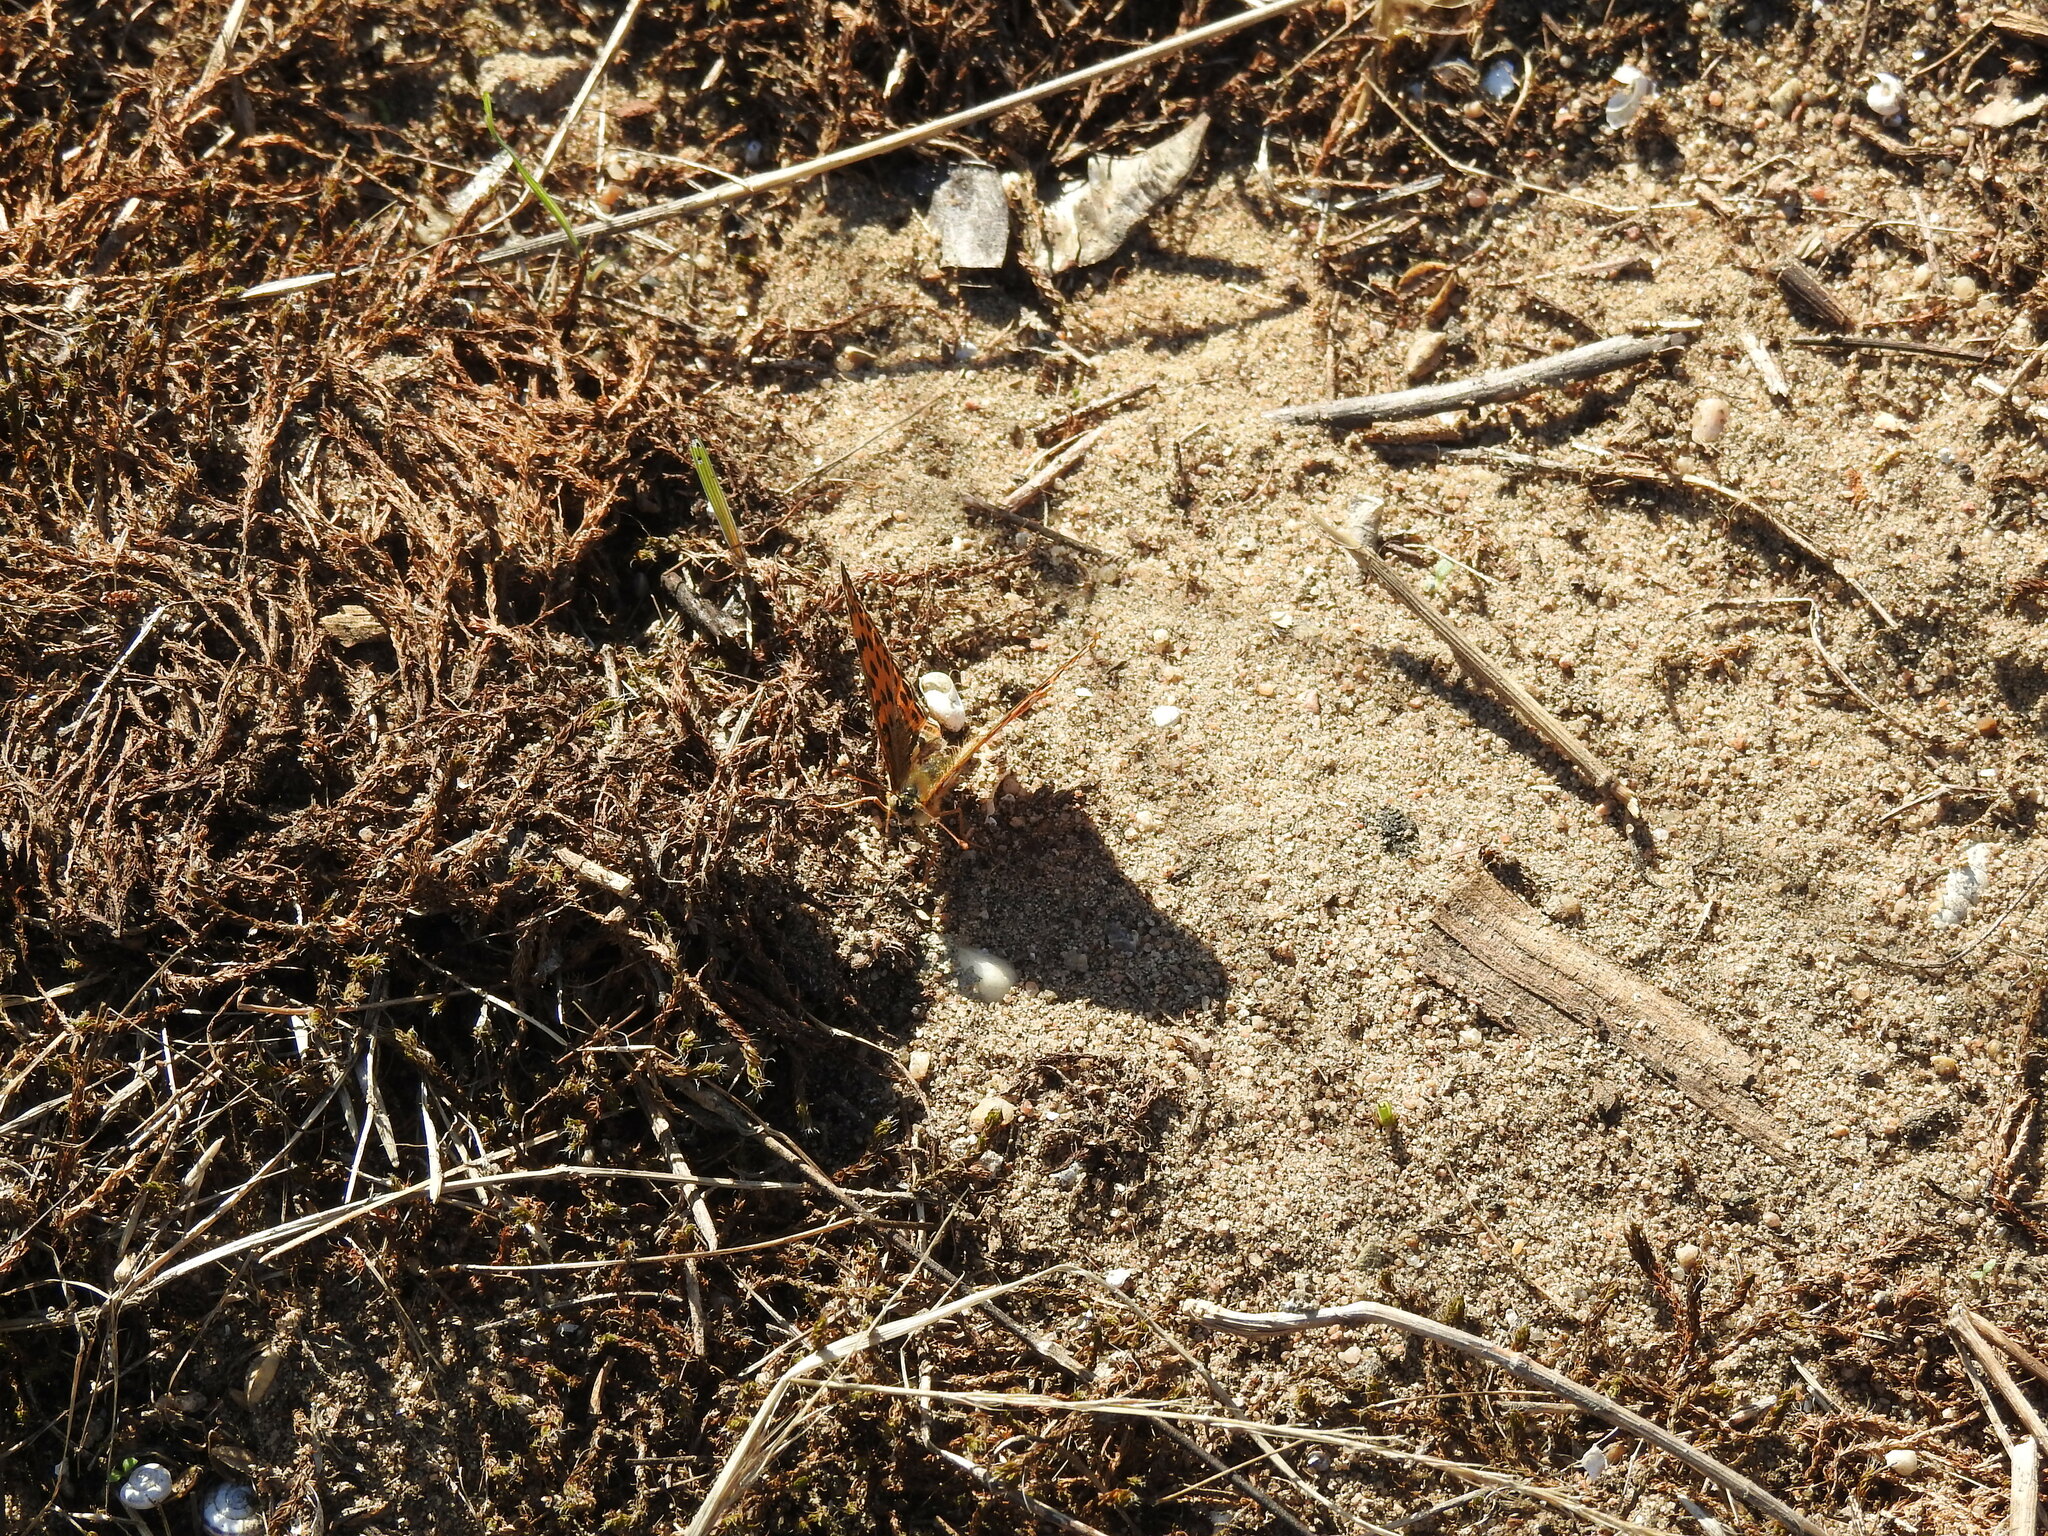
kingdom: Animalia
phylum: Arthropoda
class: Insecta
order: Lepidoptera
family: Nymphalidae
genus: Issoria
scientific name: Issoria lathonia
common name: Queen of spain fritillary
